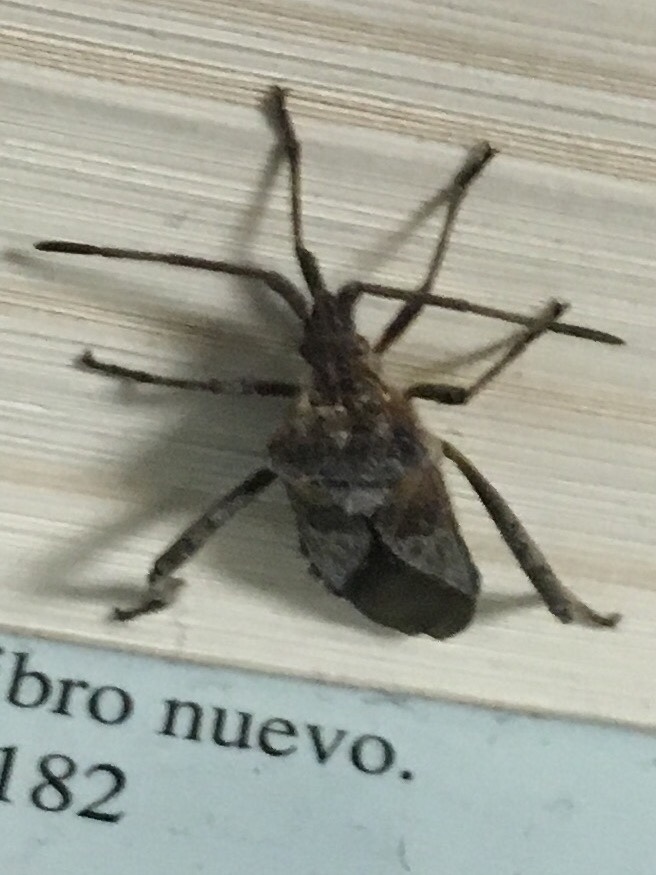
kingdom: Animalia
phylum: Arthropoda
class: Insecta
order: Hemiptera
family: Coreidae
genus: Leptoglossus
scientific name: Leptoglossus occidentalis
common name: Western conifer-seed bug
